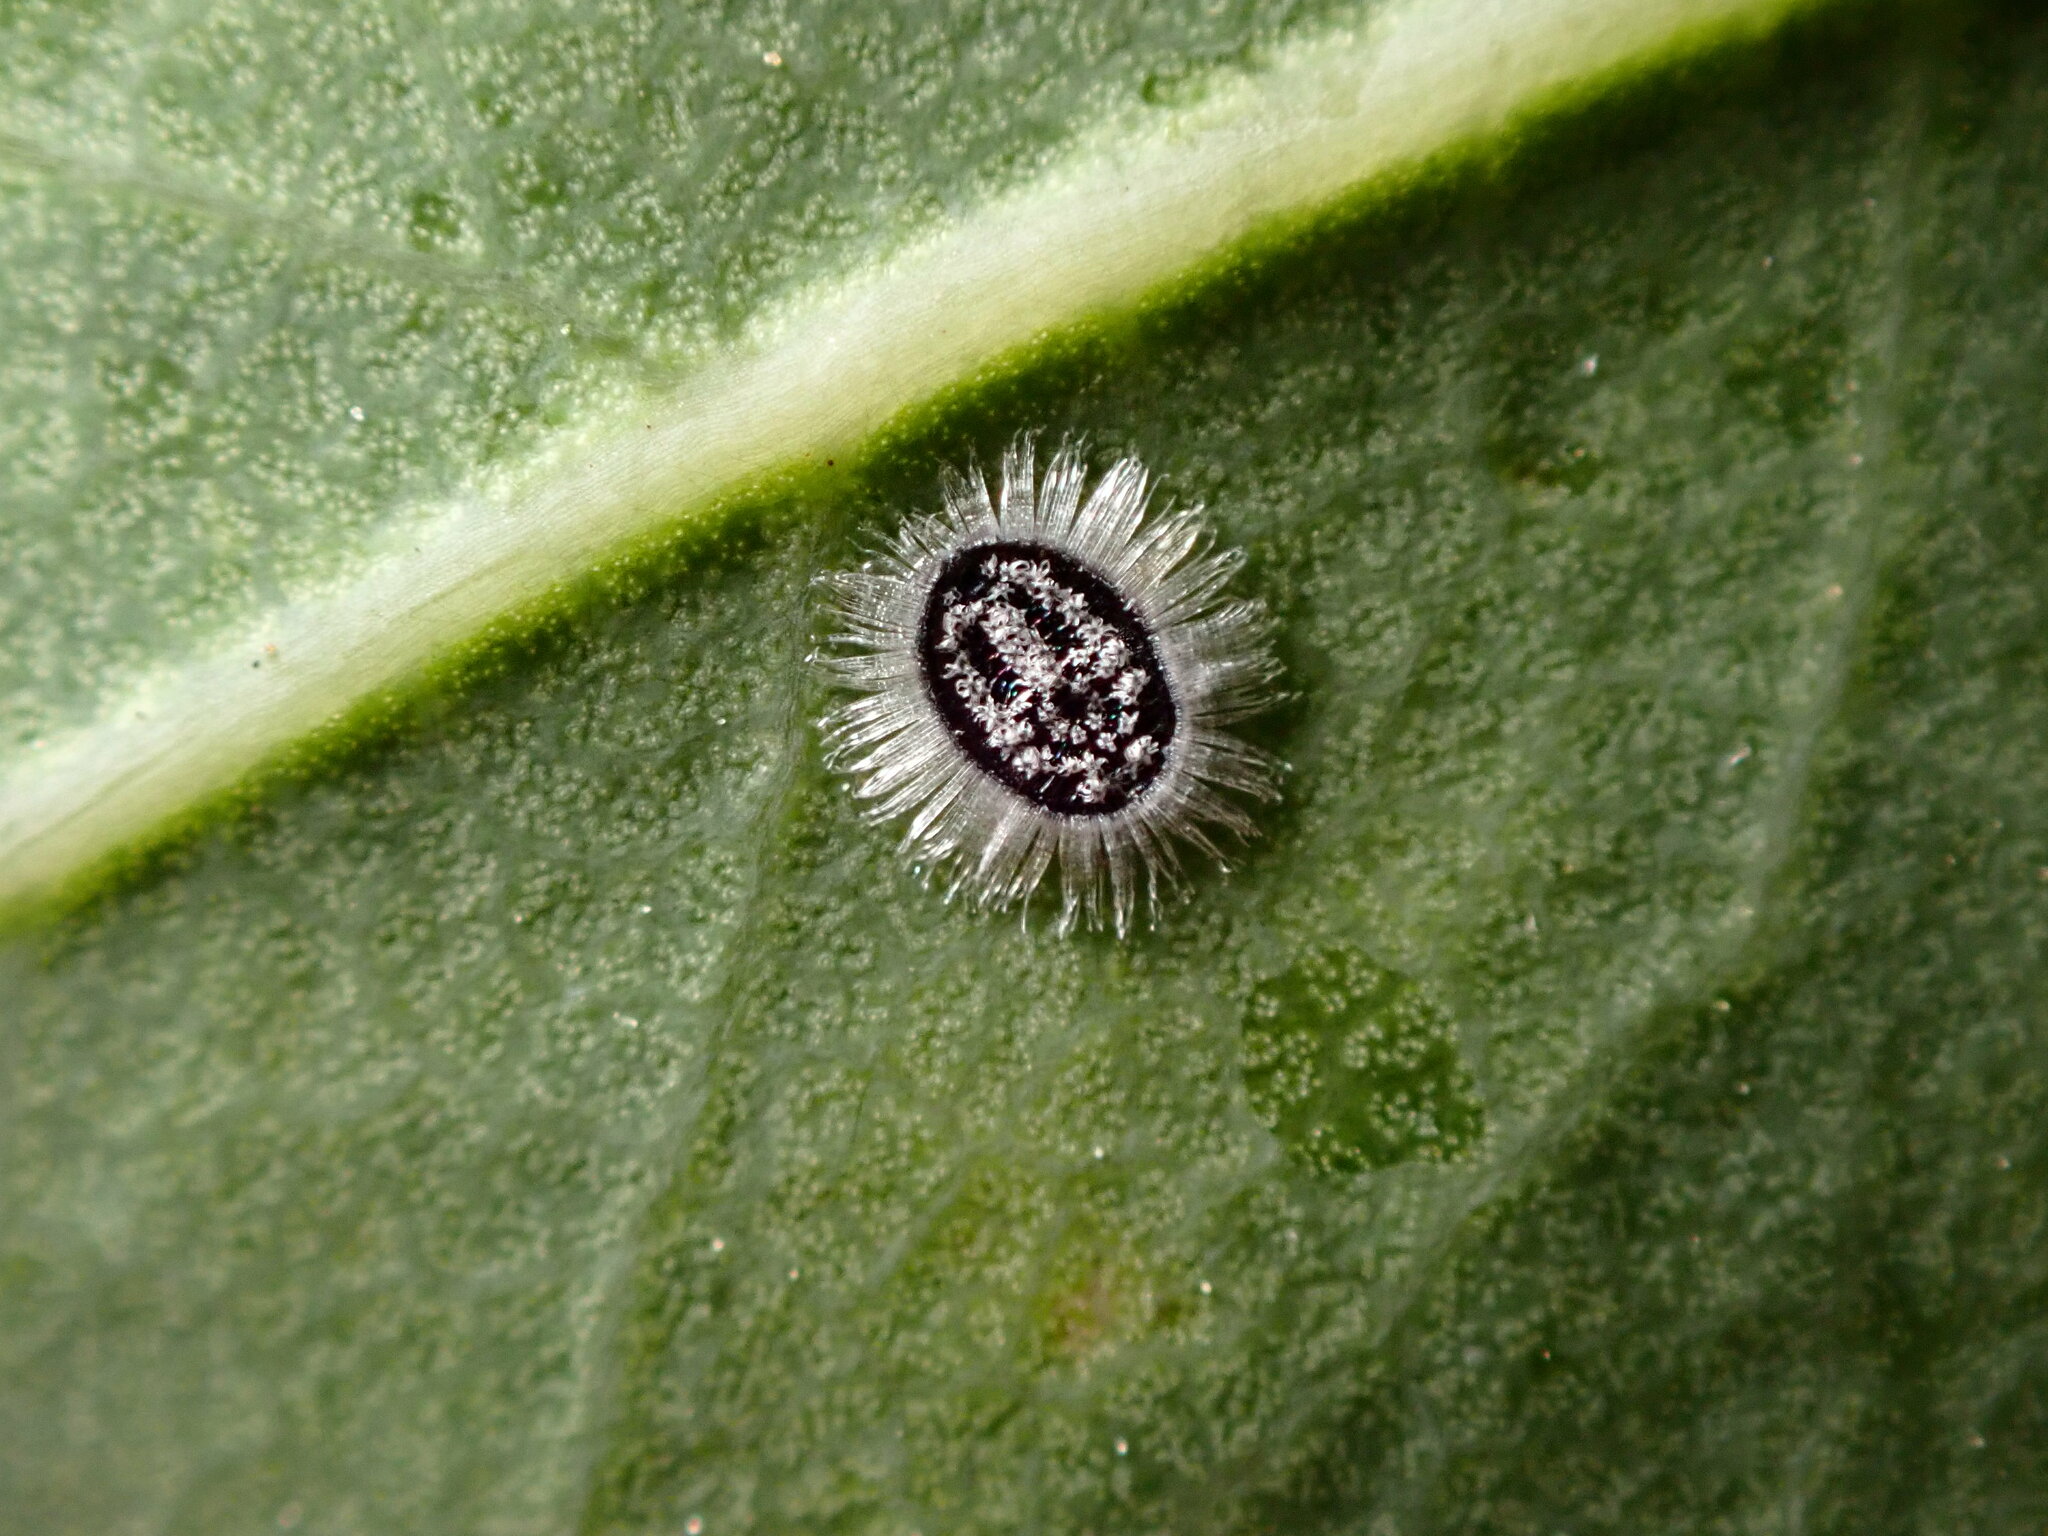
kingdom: Animalia
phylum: Arthropoda
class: Insecta
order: Hemiptera
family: Aleyrodidae
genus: Aleuroparadoxus
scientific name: Aleuroparadoxus arctostaphyli
